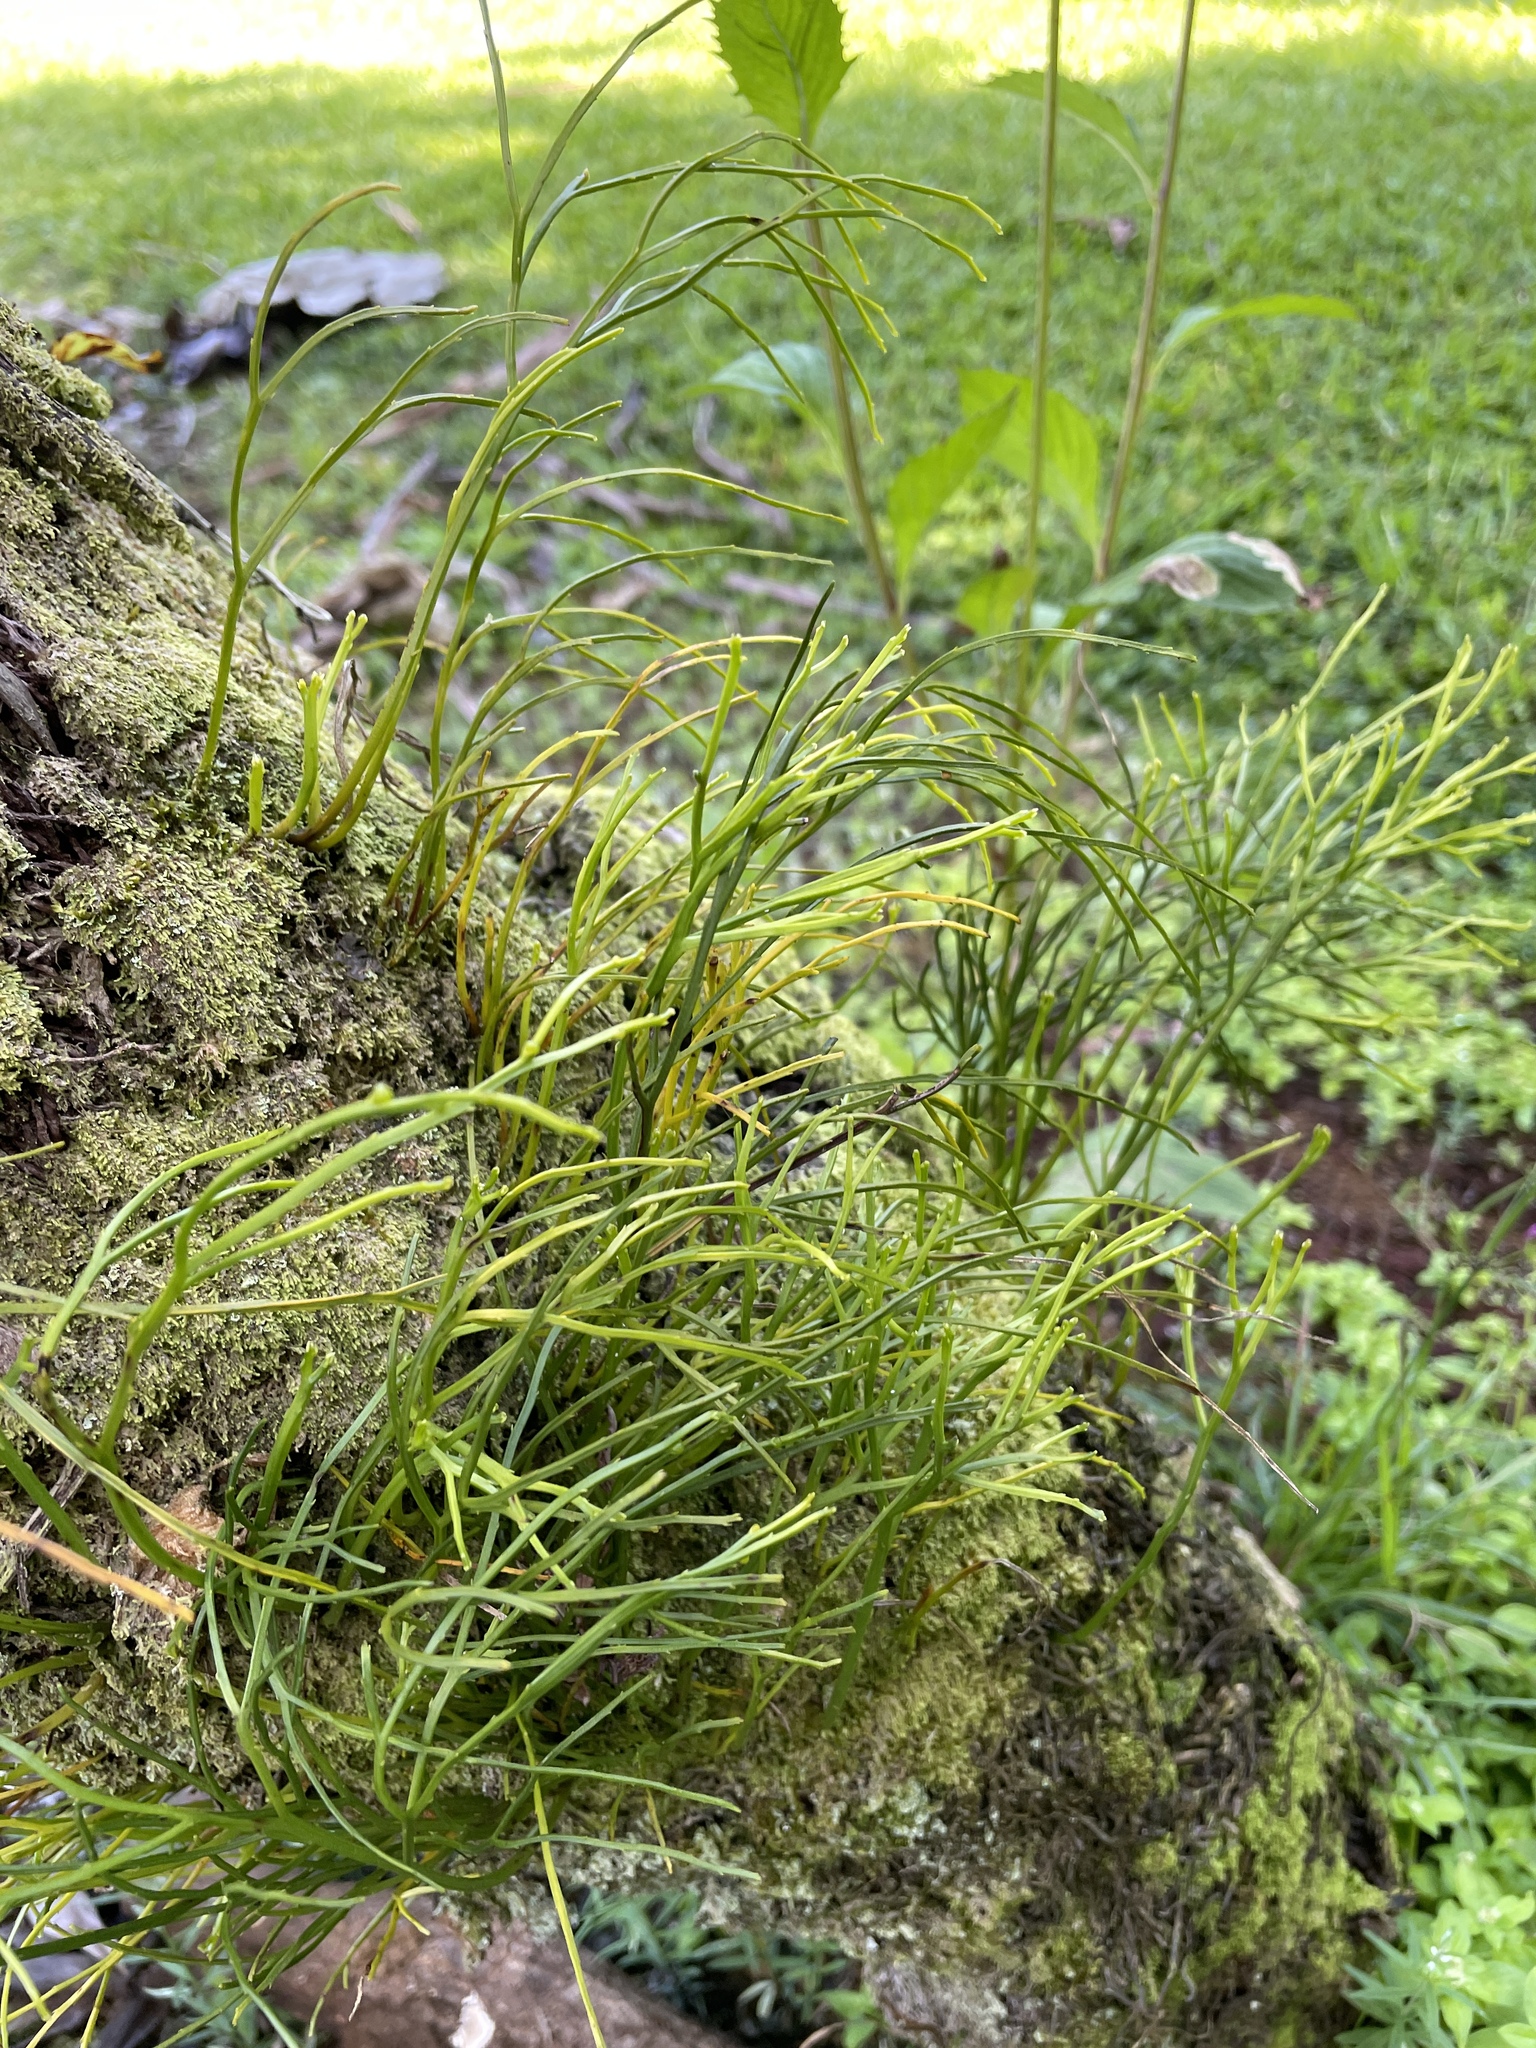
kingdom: Plantae
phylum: Tracheophyta
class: Polypodiopsida
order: Psilotales
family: Psilotaceae
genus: Psilotum
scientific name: Psilotum nudum
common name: Skeleton fork fern
